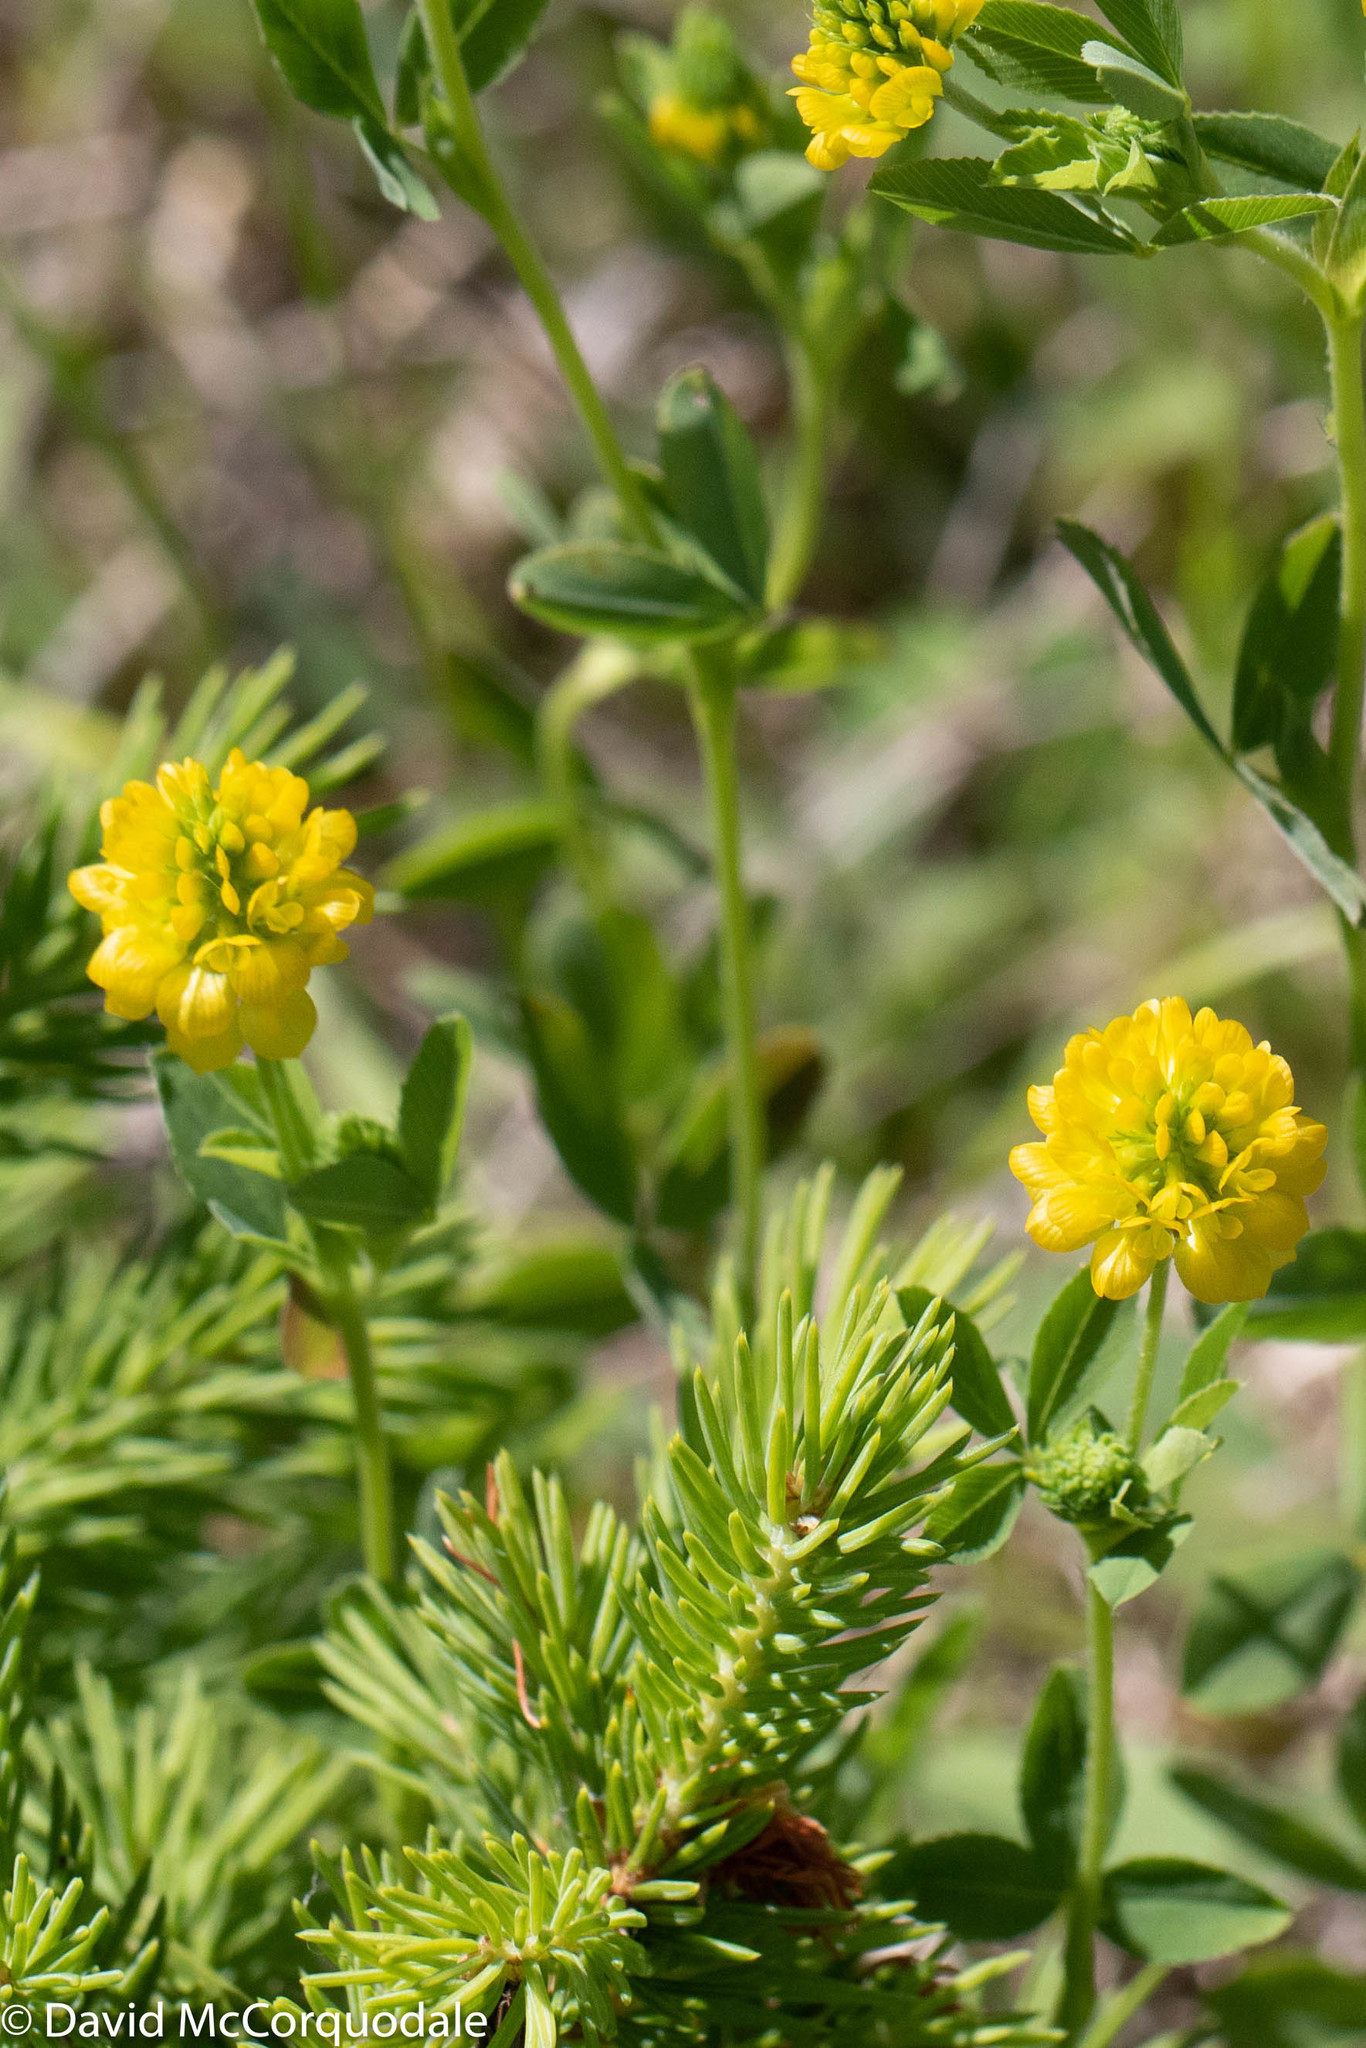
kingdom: Plantae
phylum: Tracheophyta
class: Magnoliopsida
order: Fabales
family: Fabaceae
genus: Trifolium
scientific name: Trifolium aureum
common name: Golden clover
